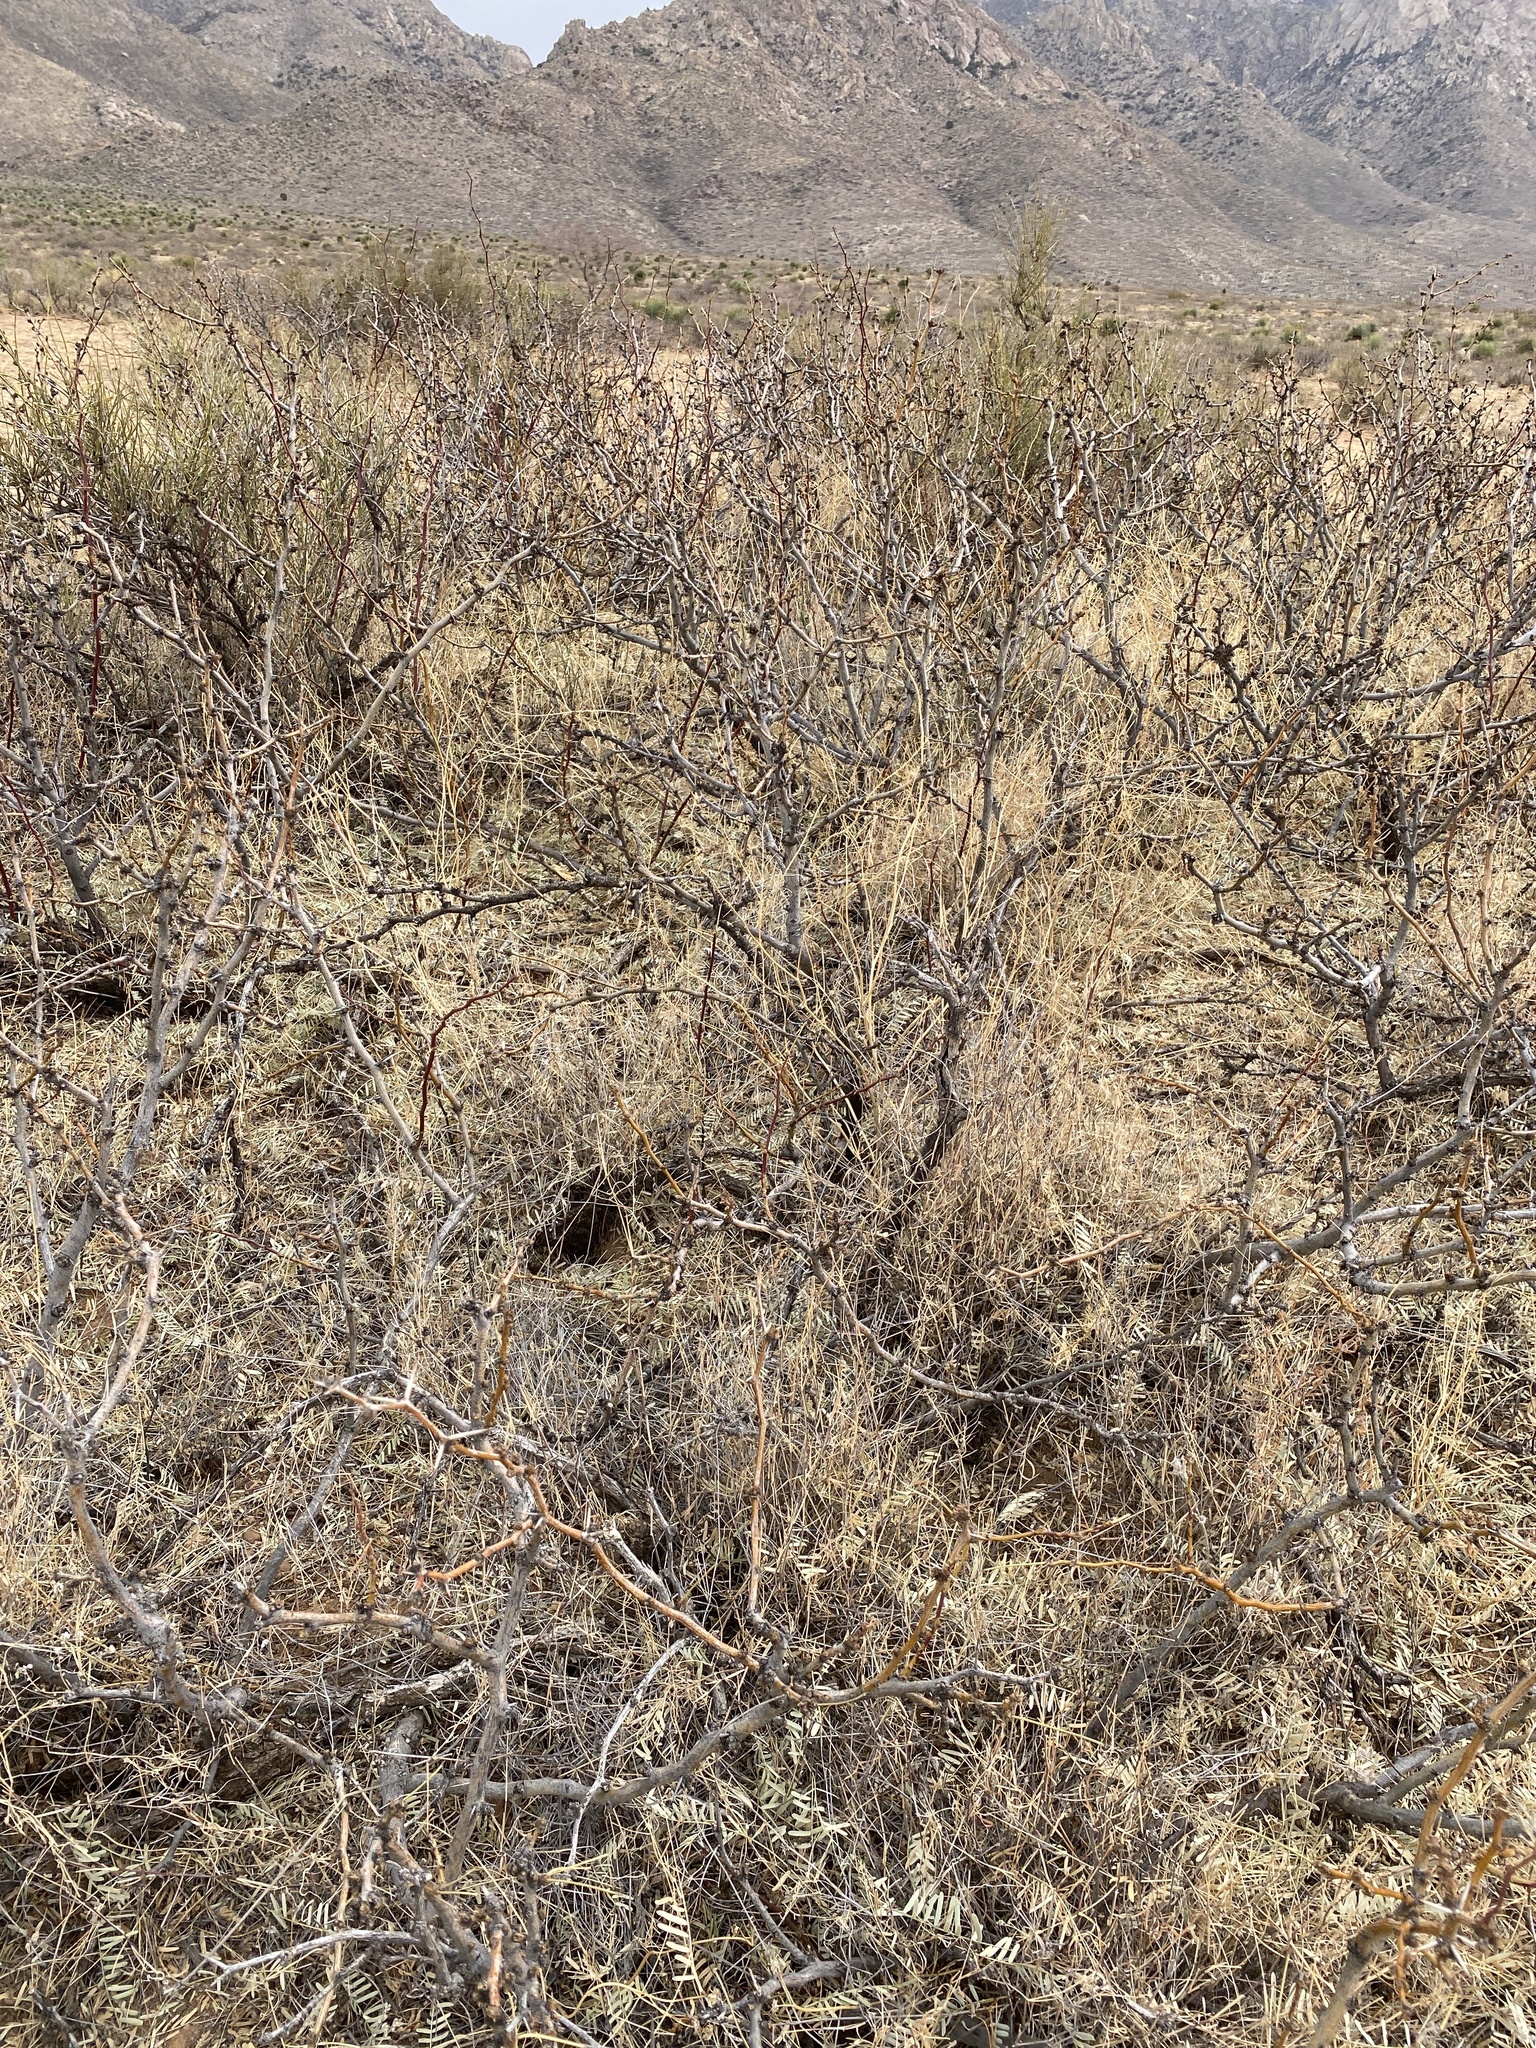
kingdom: Plantae
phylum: Tracheophyta
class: Gnetopsida
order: Ephedrales
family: Ephedraceae
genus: Ephedra
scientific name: Ephedra trifurca
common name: Mexican-tea
